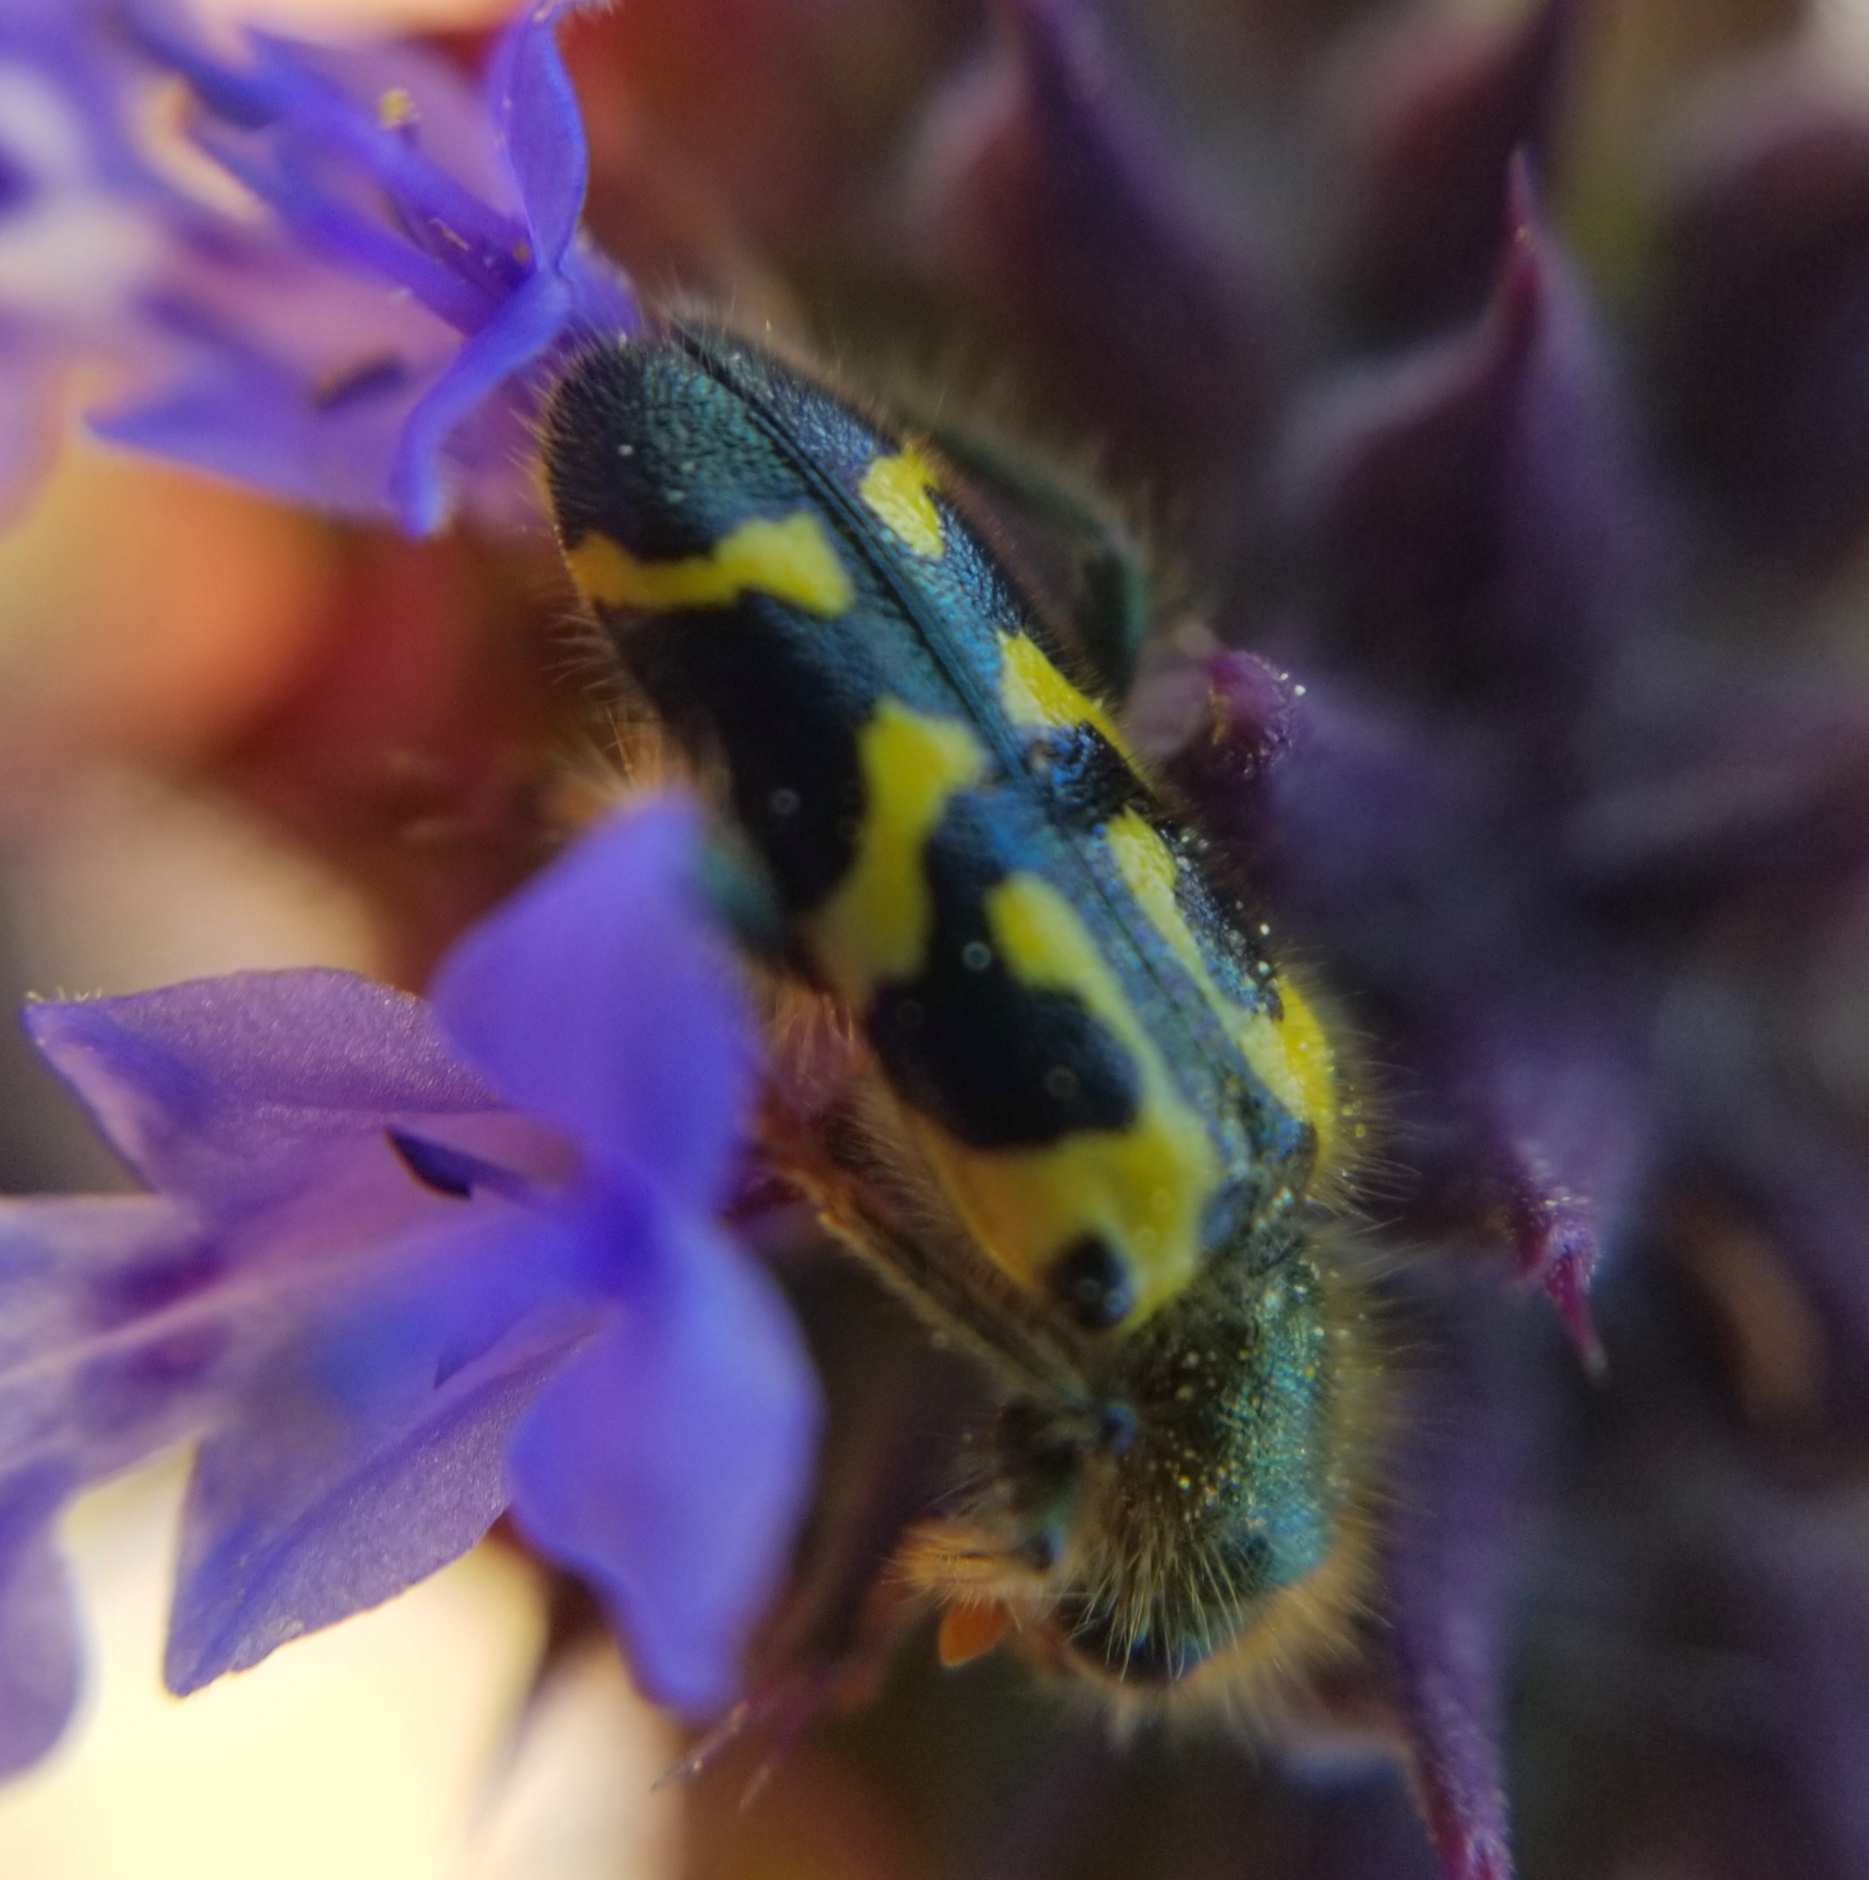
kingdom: Animalia
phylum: Arthropoda
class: Insecta
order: Coleoptera
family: Cleridae
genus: Trichodes
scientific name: Trichodes ornatus
